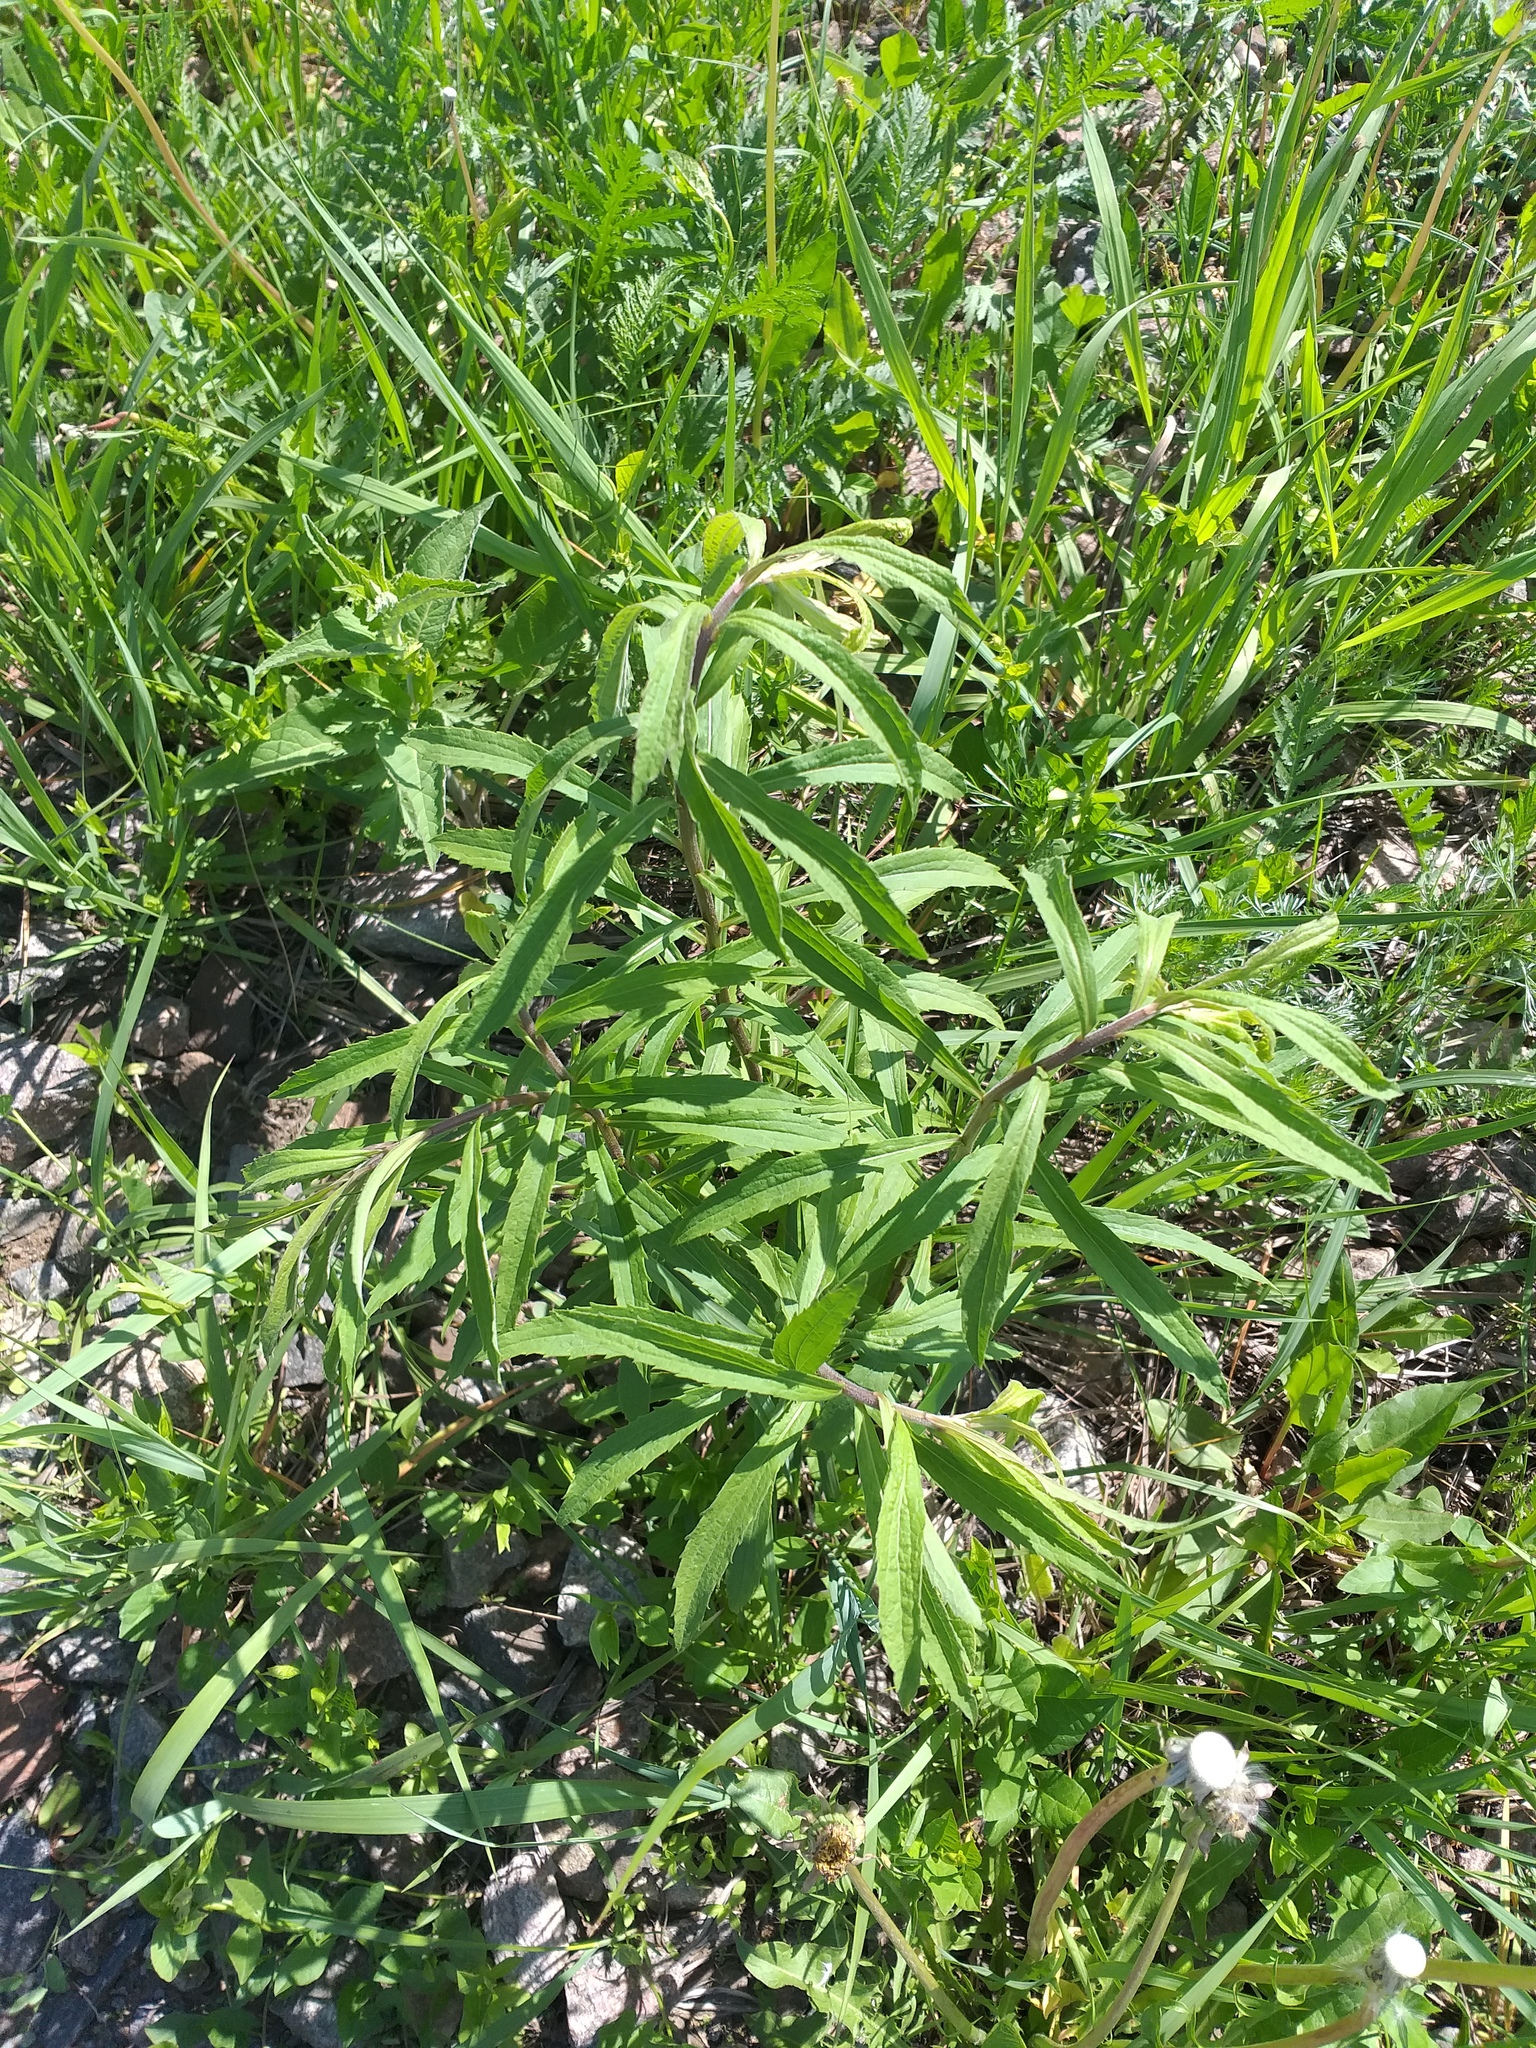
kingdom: Plantae
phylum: Tracheophyta
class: Magnoliopsida
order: Asterales
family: Asteraceae
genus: Solidago
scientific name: Solidago canadensis
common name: Canada goldenrod
